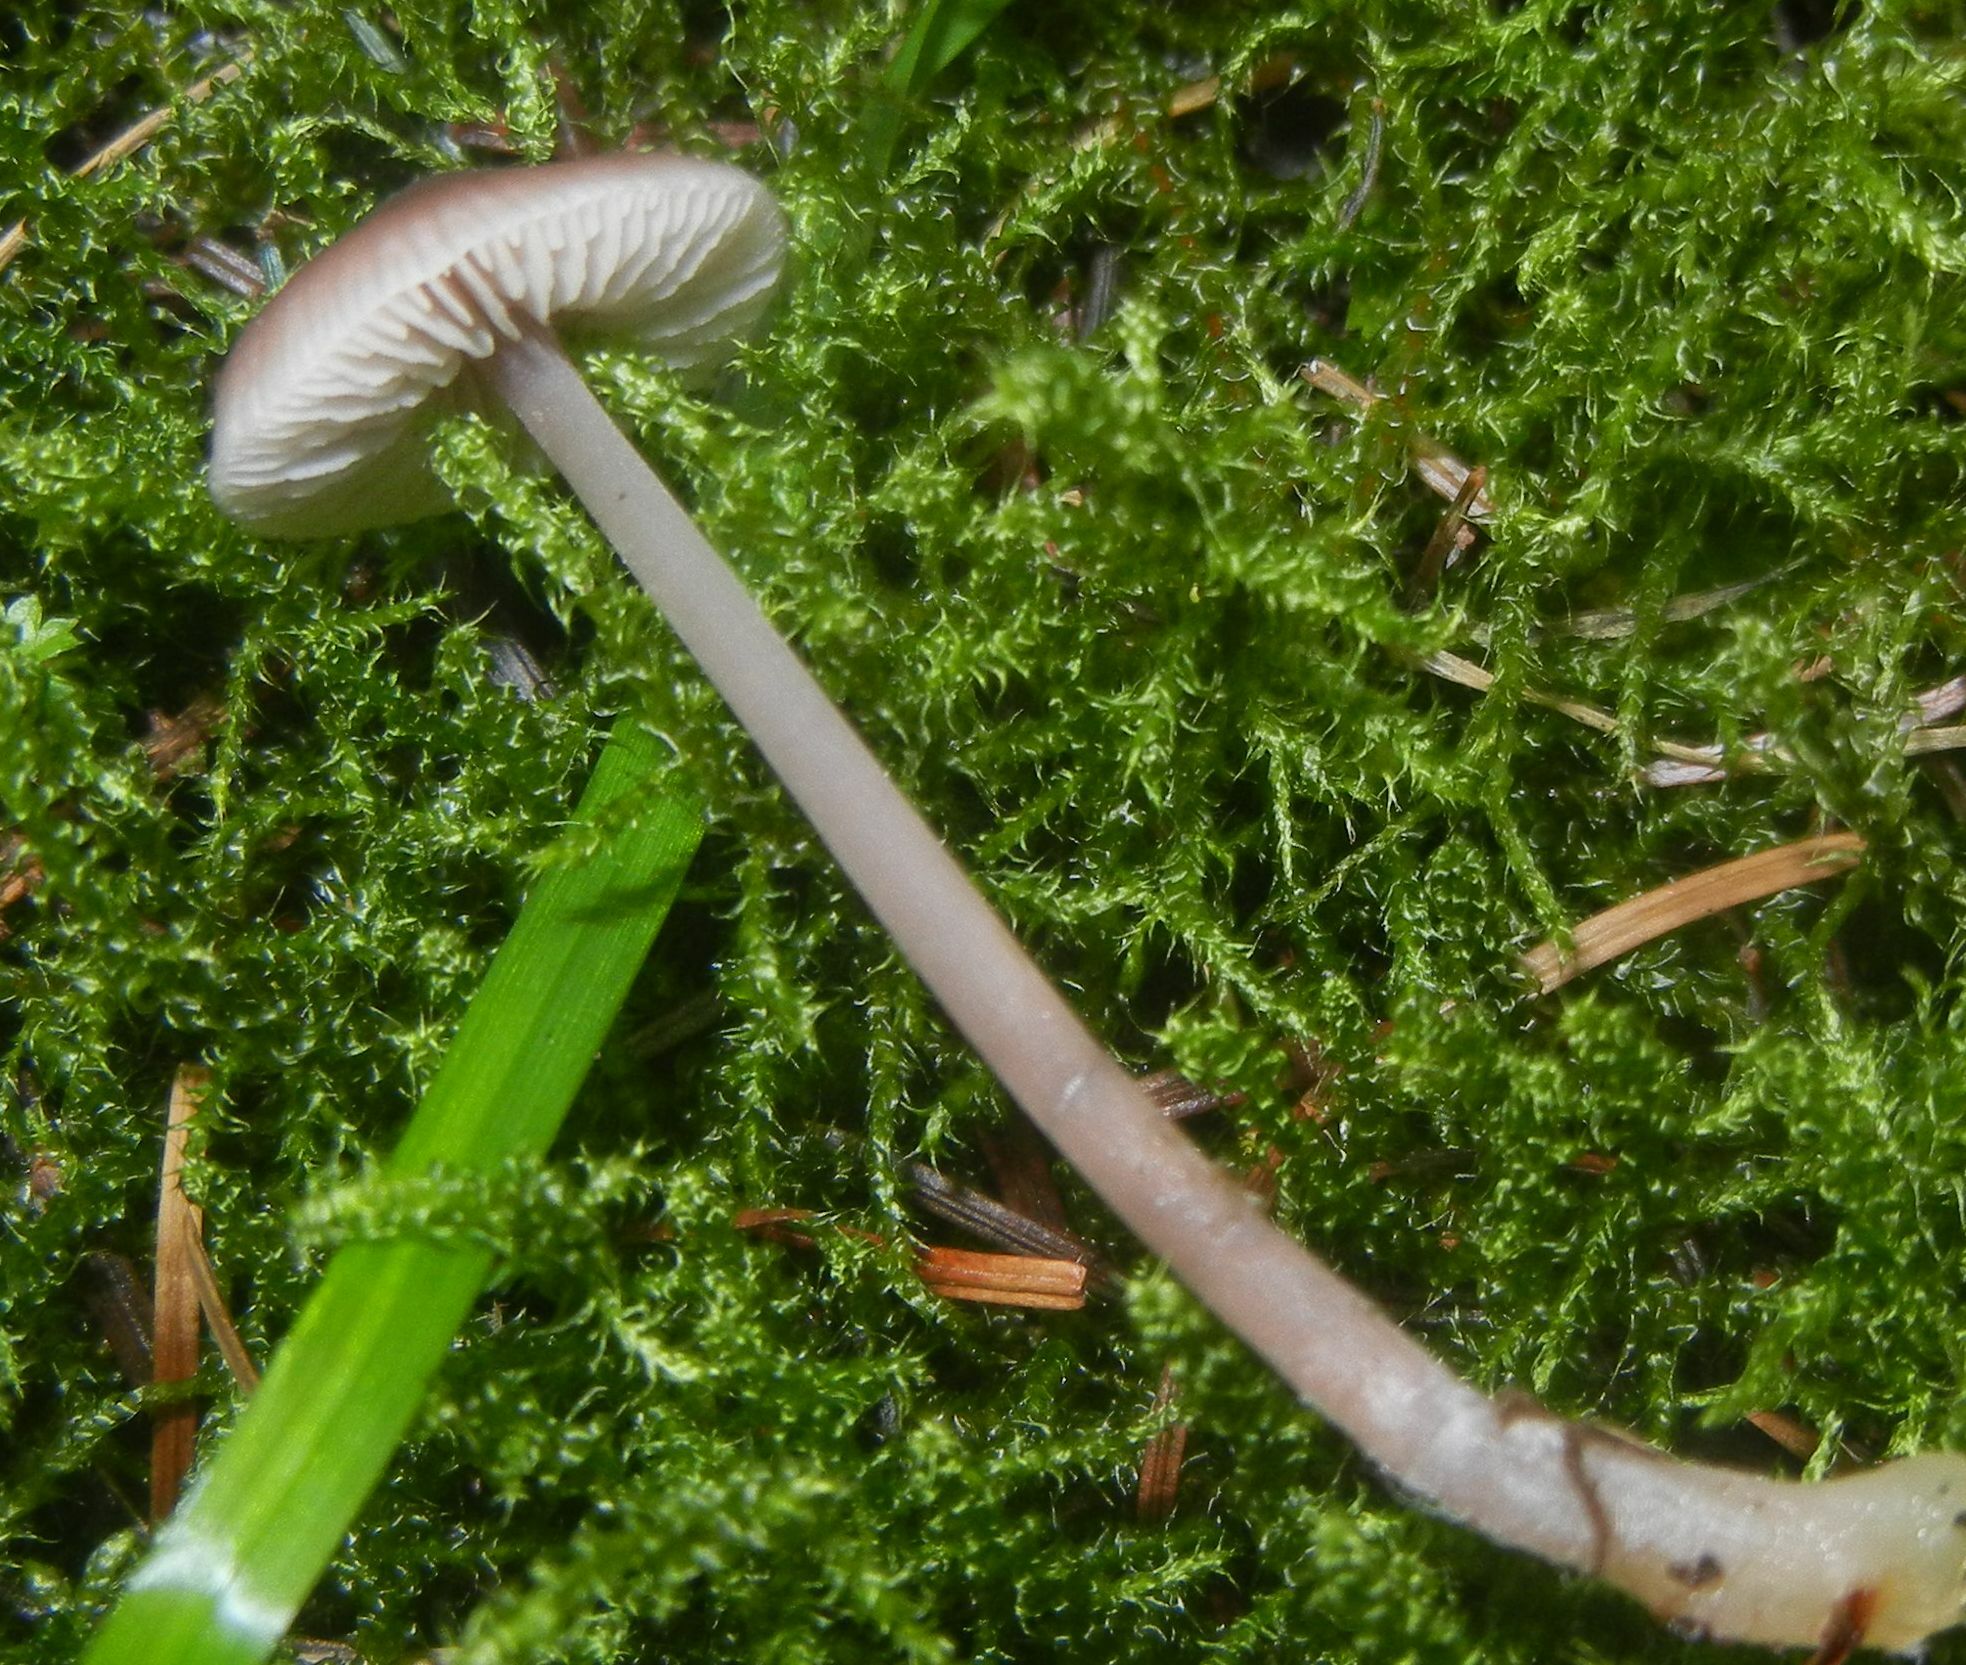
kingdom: Fungi
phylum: Basidiomycota
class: Agaricomycetes
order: Agaricales
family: Mycenaceae
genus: Mycena
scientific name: Mycena pura
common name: Lilac bonnet
